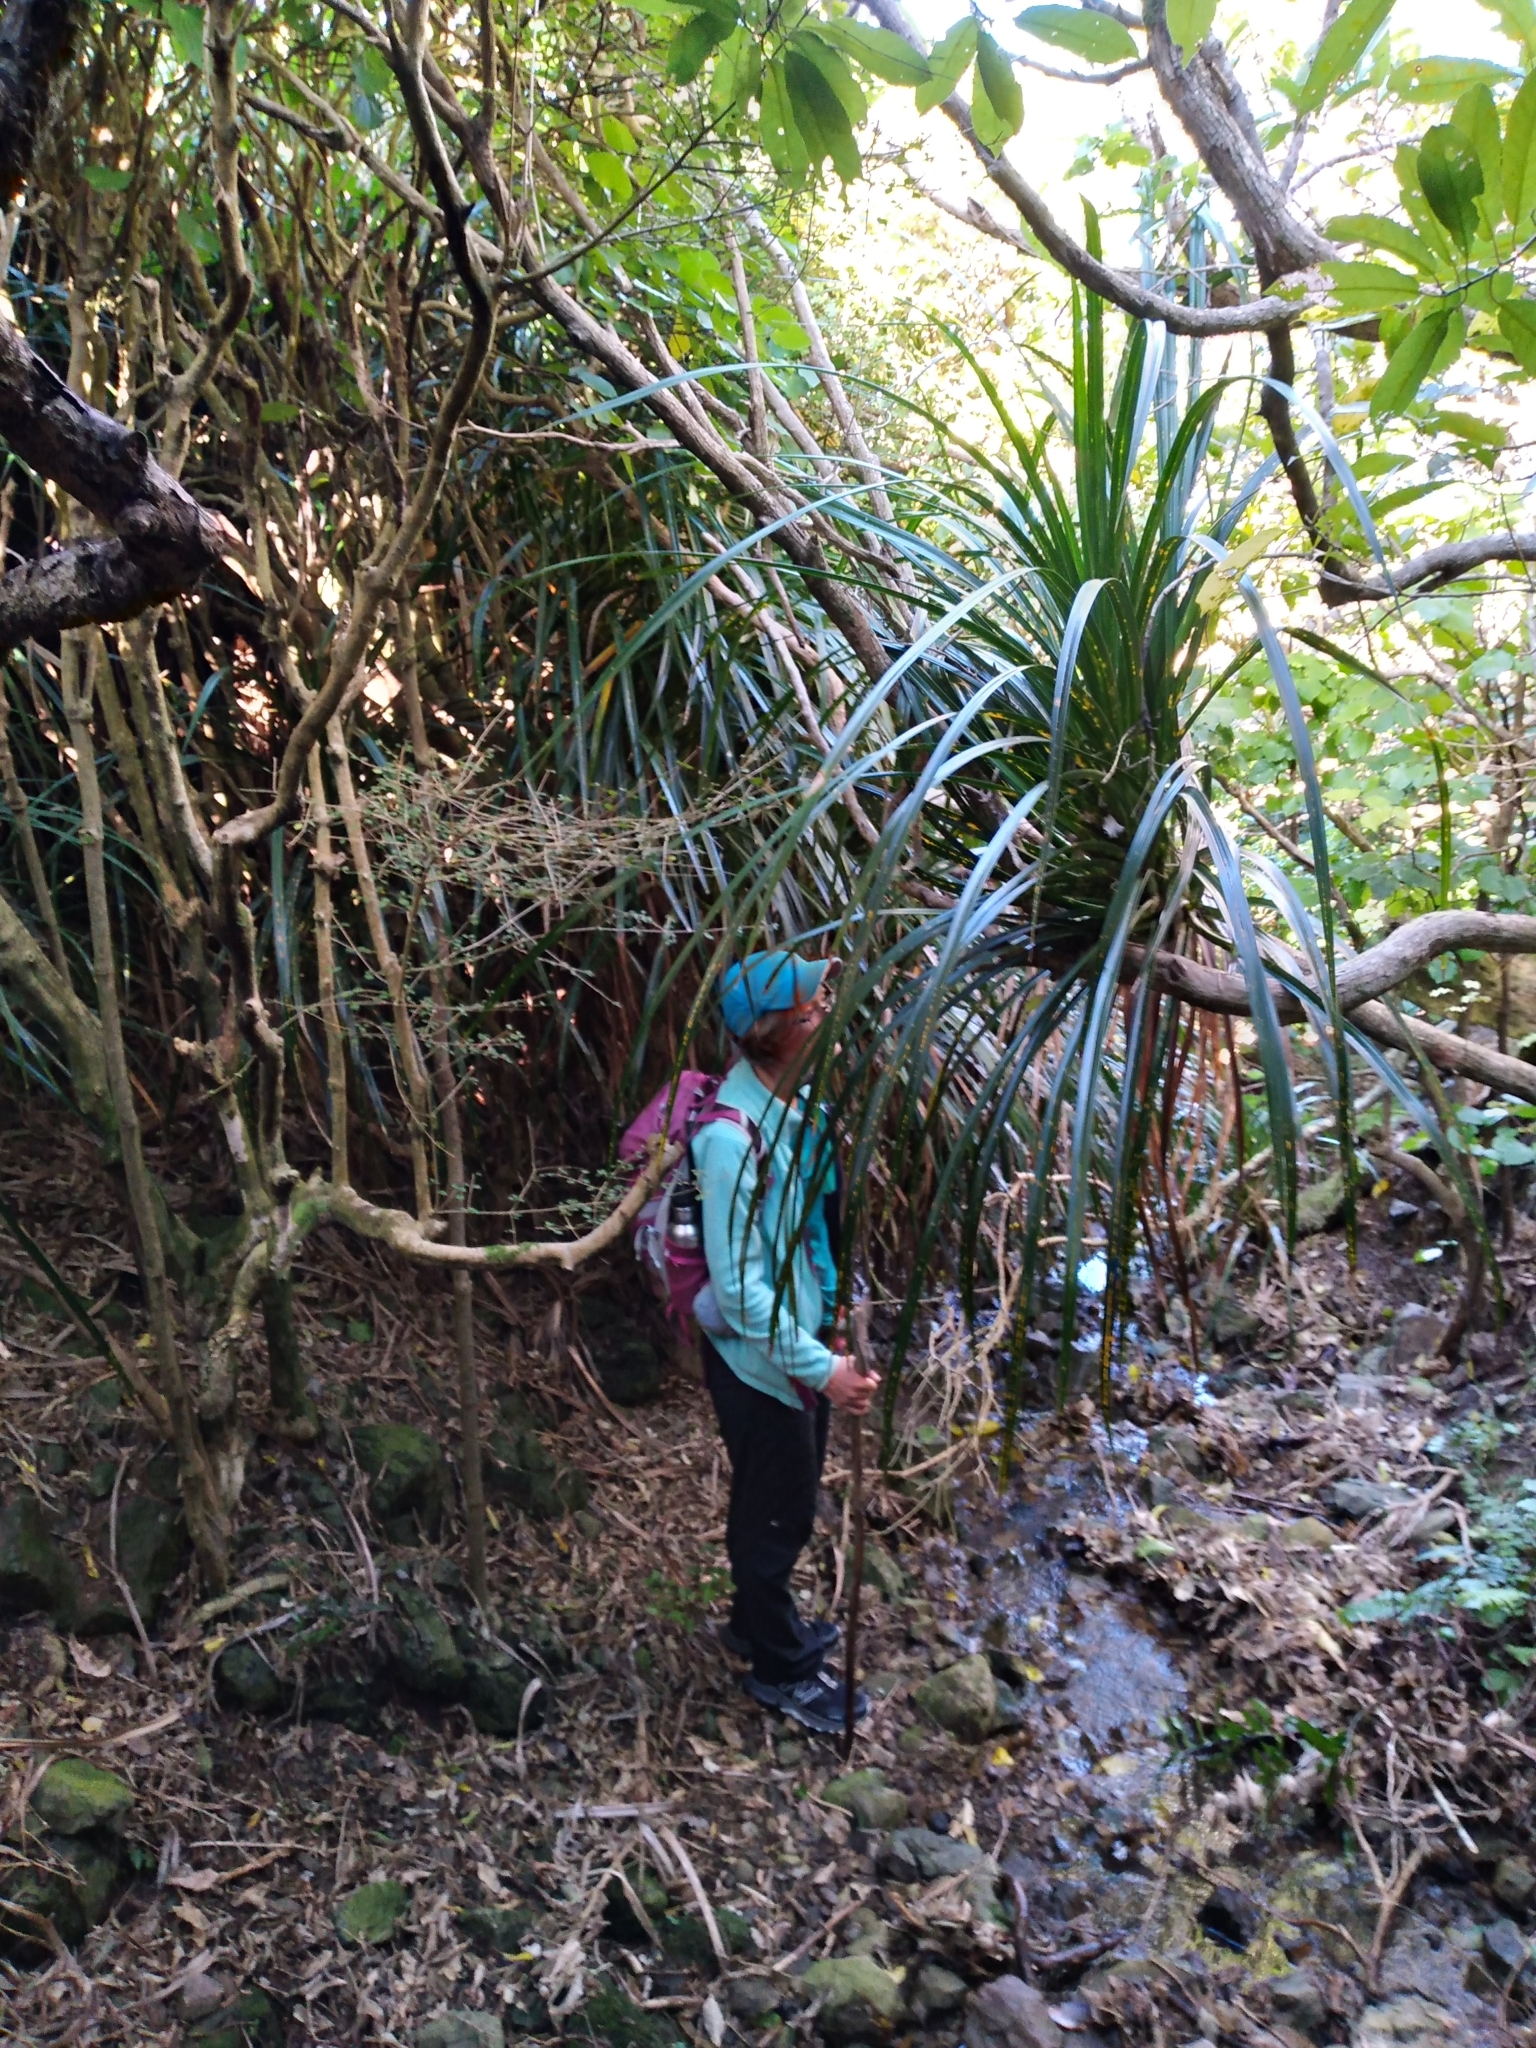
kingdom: Plantae
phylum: Tracheophyta
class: Liliopsida
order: Pandanales
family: Pandanaceae
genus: Freycinetia
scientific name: Freycinetia banksii
